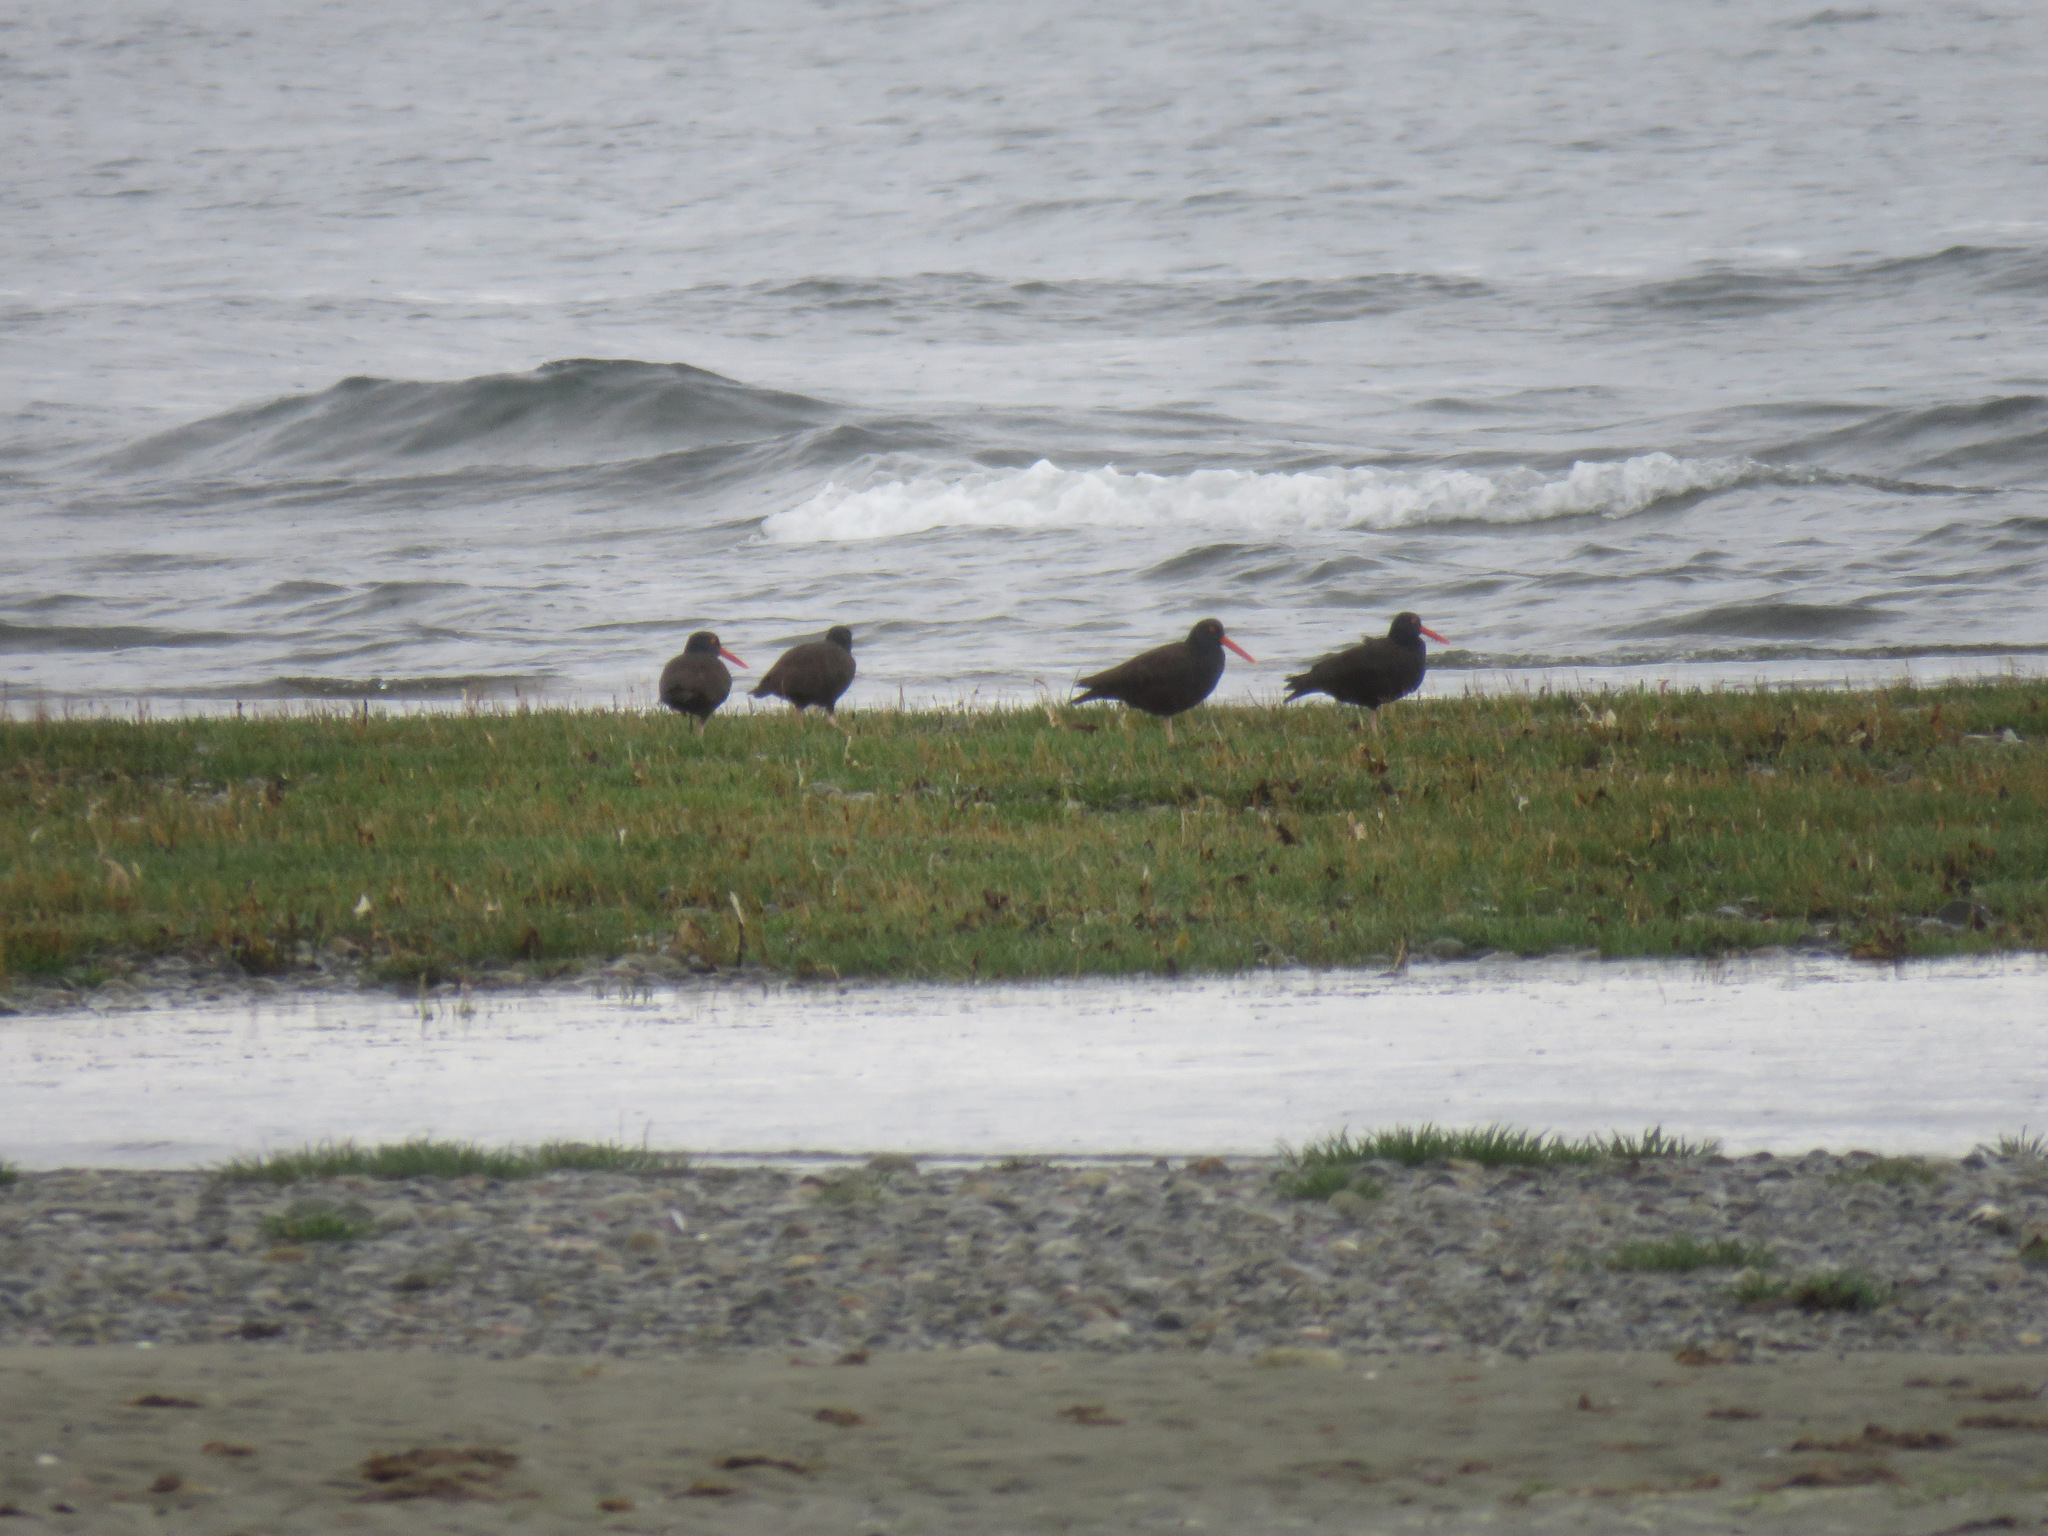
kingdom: Animalia
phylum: Chordata
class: Aves
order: Charadriiformes
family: Haematopodidae
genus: Haematopus
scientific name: Haematopus bachmani
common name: Black oystercatcher
